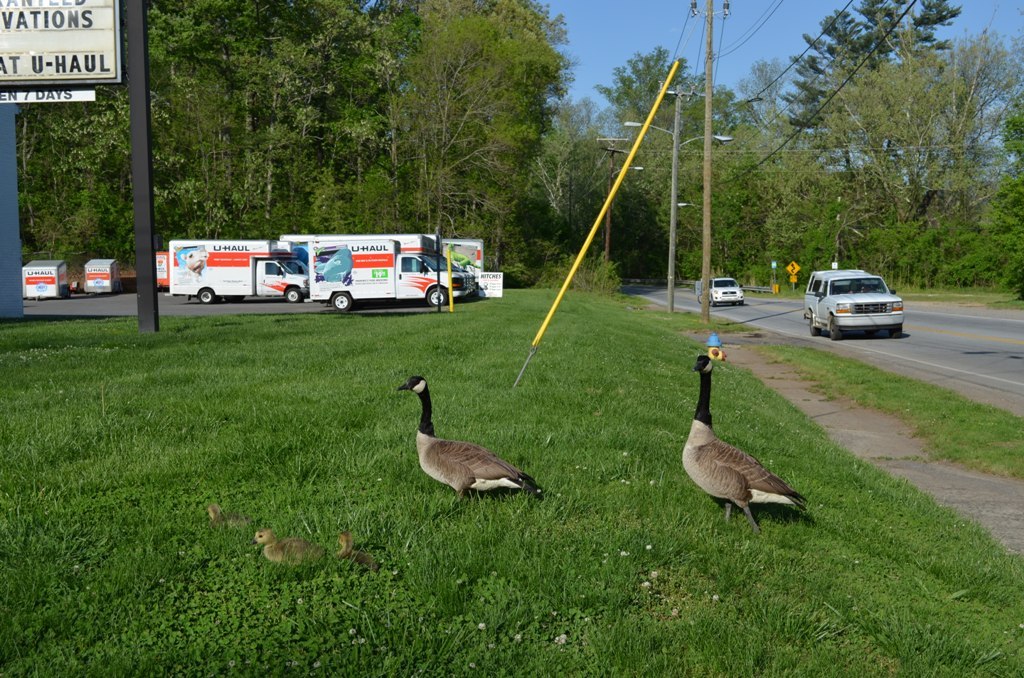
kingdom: Animalia
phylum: Chordata
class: Aves
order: Anseriformes
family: Anatidae
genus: Branta
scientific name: Branta canadensis
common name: Canada goose
